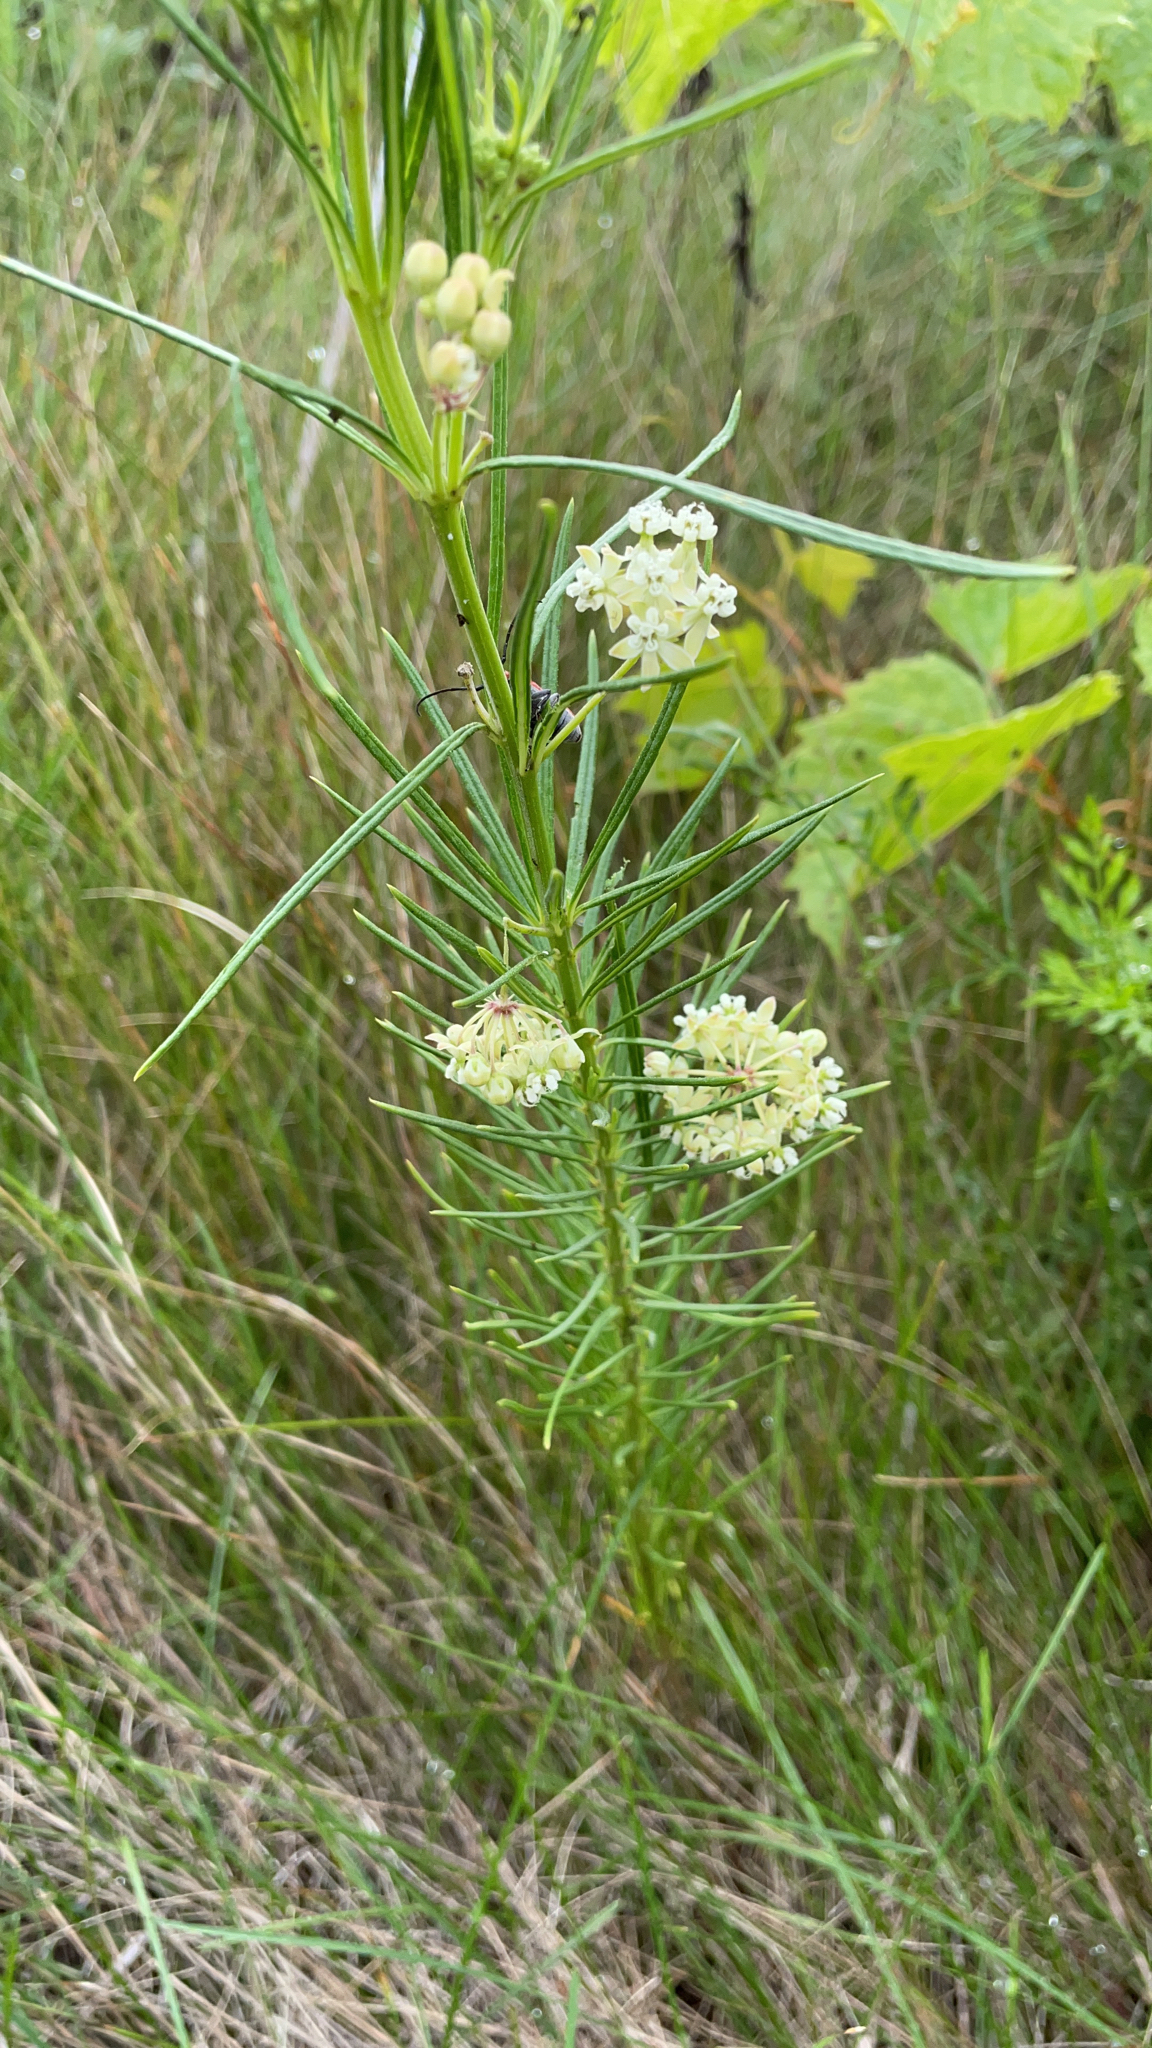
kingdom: Plantae
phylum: Tracheophyta
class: Magnoliopsida
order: Gentianales
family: Apocynaceae
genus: Asclepias
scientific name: Asclepias verticillata
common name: Eastern whorled milkweed
